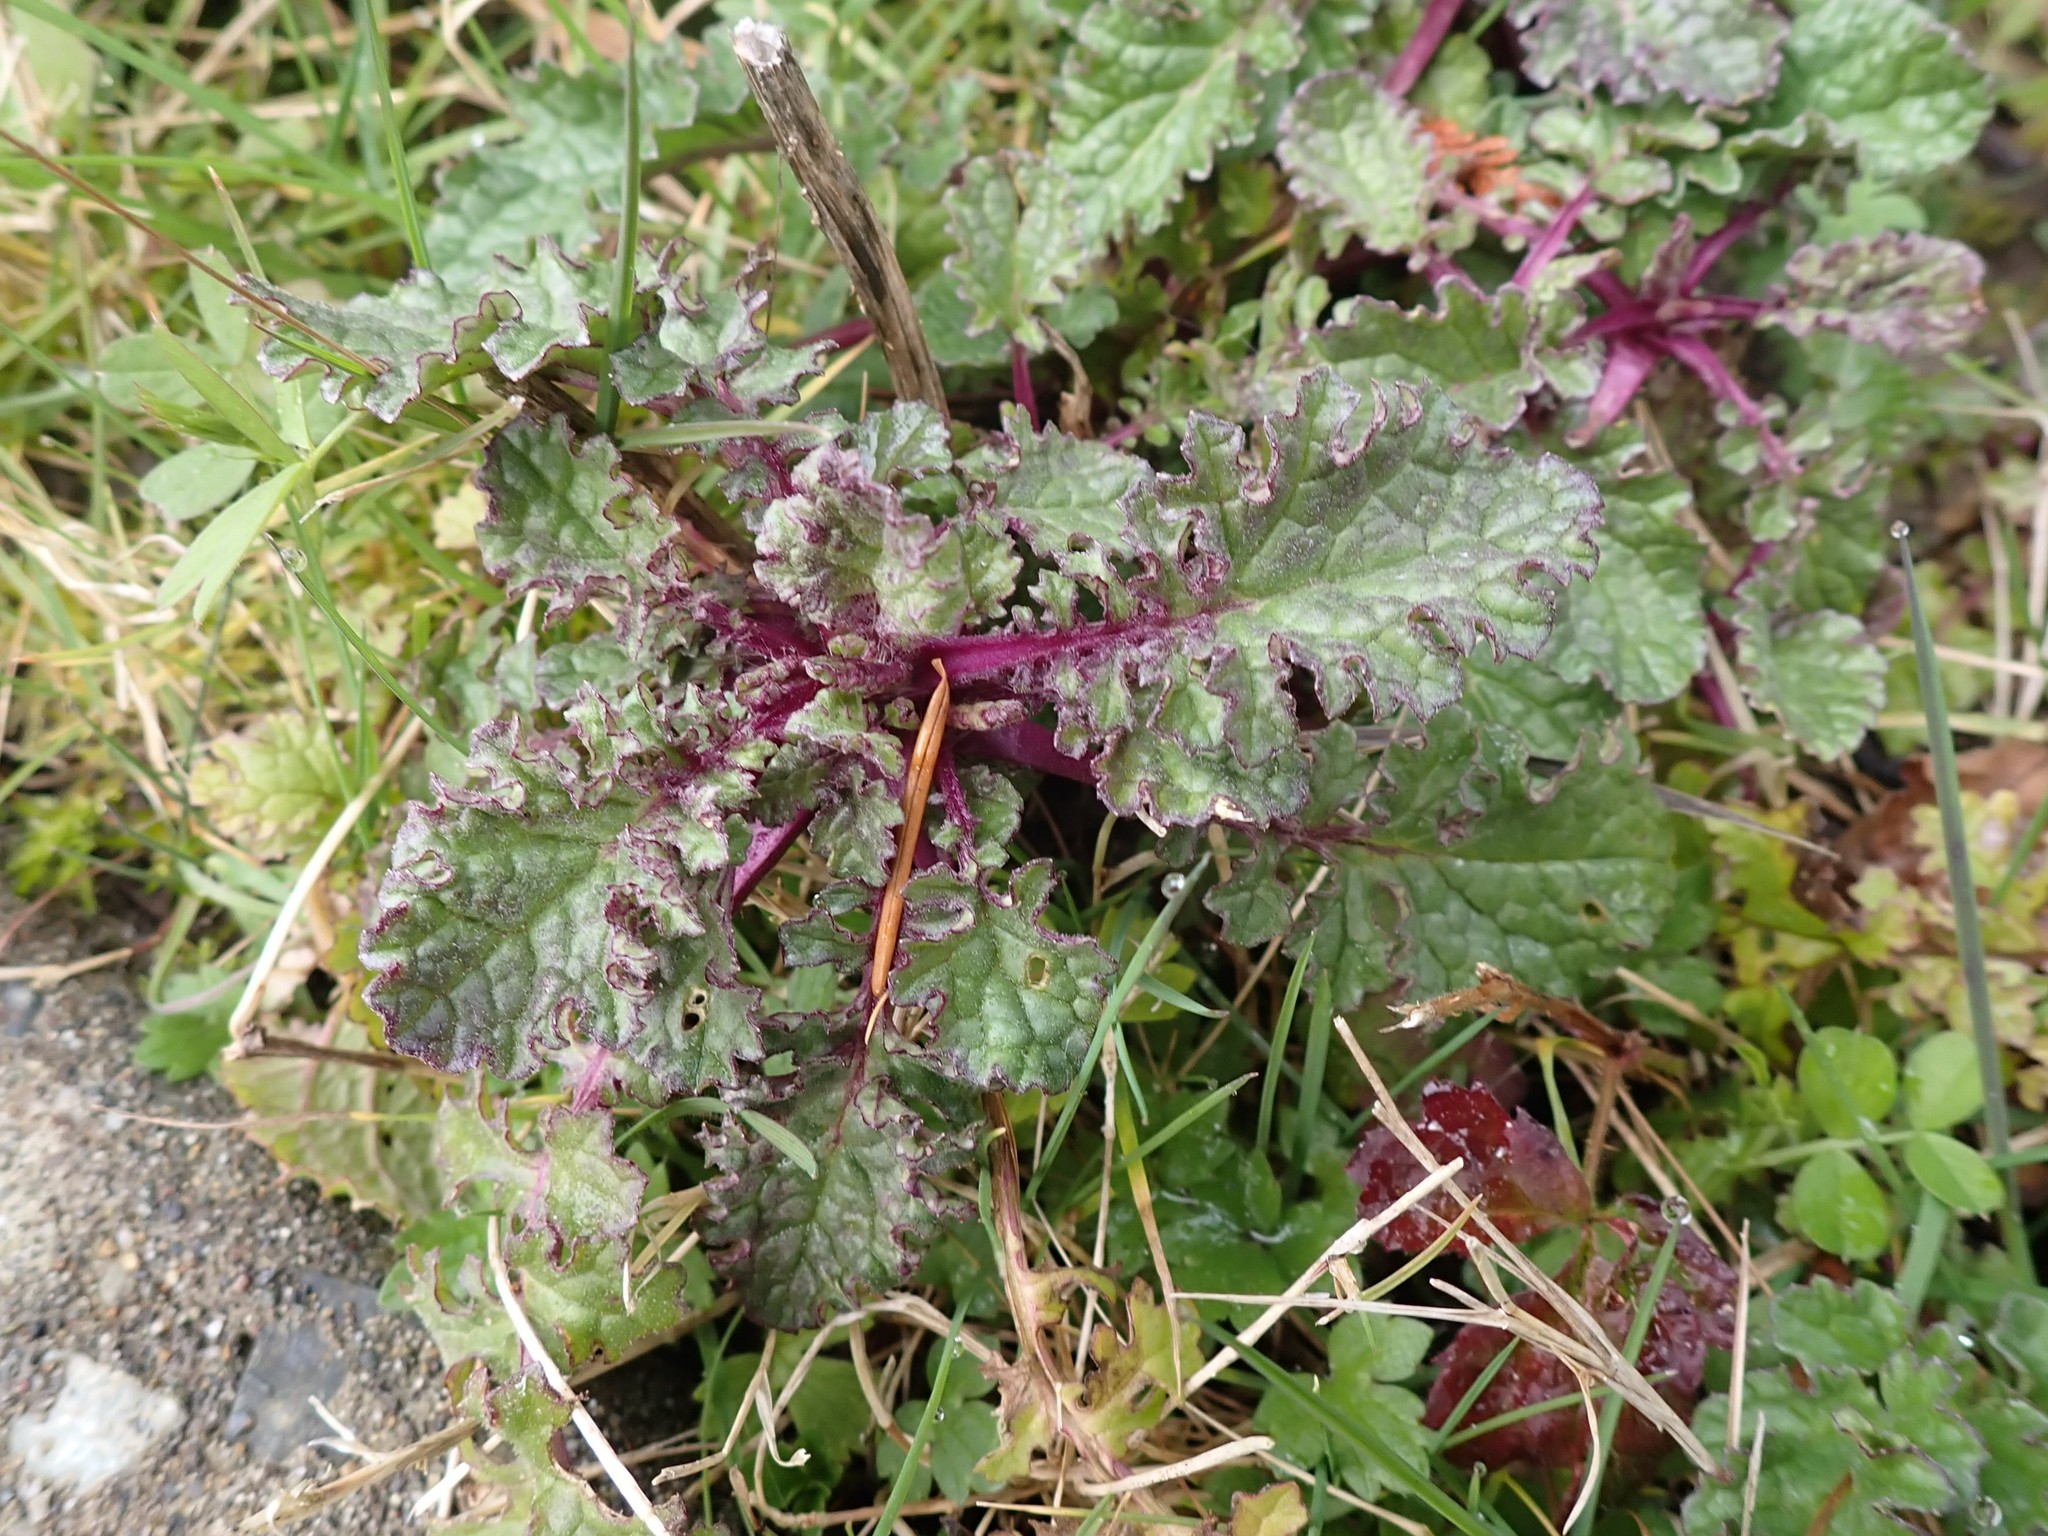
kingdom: Plantae
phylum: Tracheophyta
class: Magnoliopsida
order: Asterales
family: Asteraceae
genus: Jacobaea
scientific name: Jacobaea vulgaris
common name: Stinking willie
